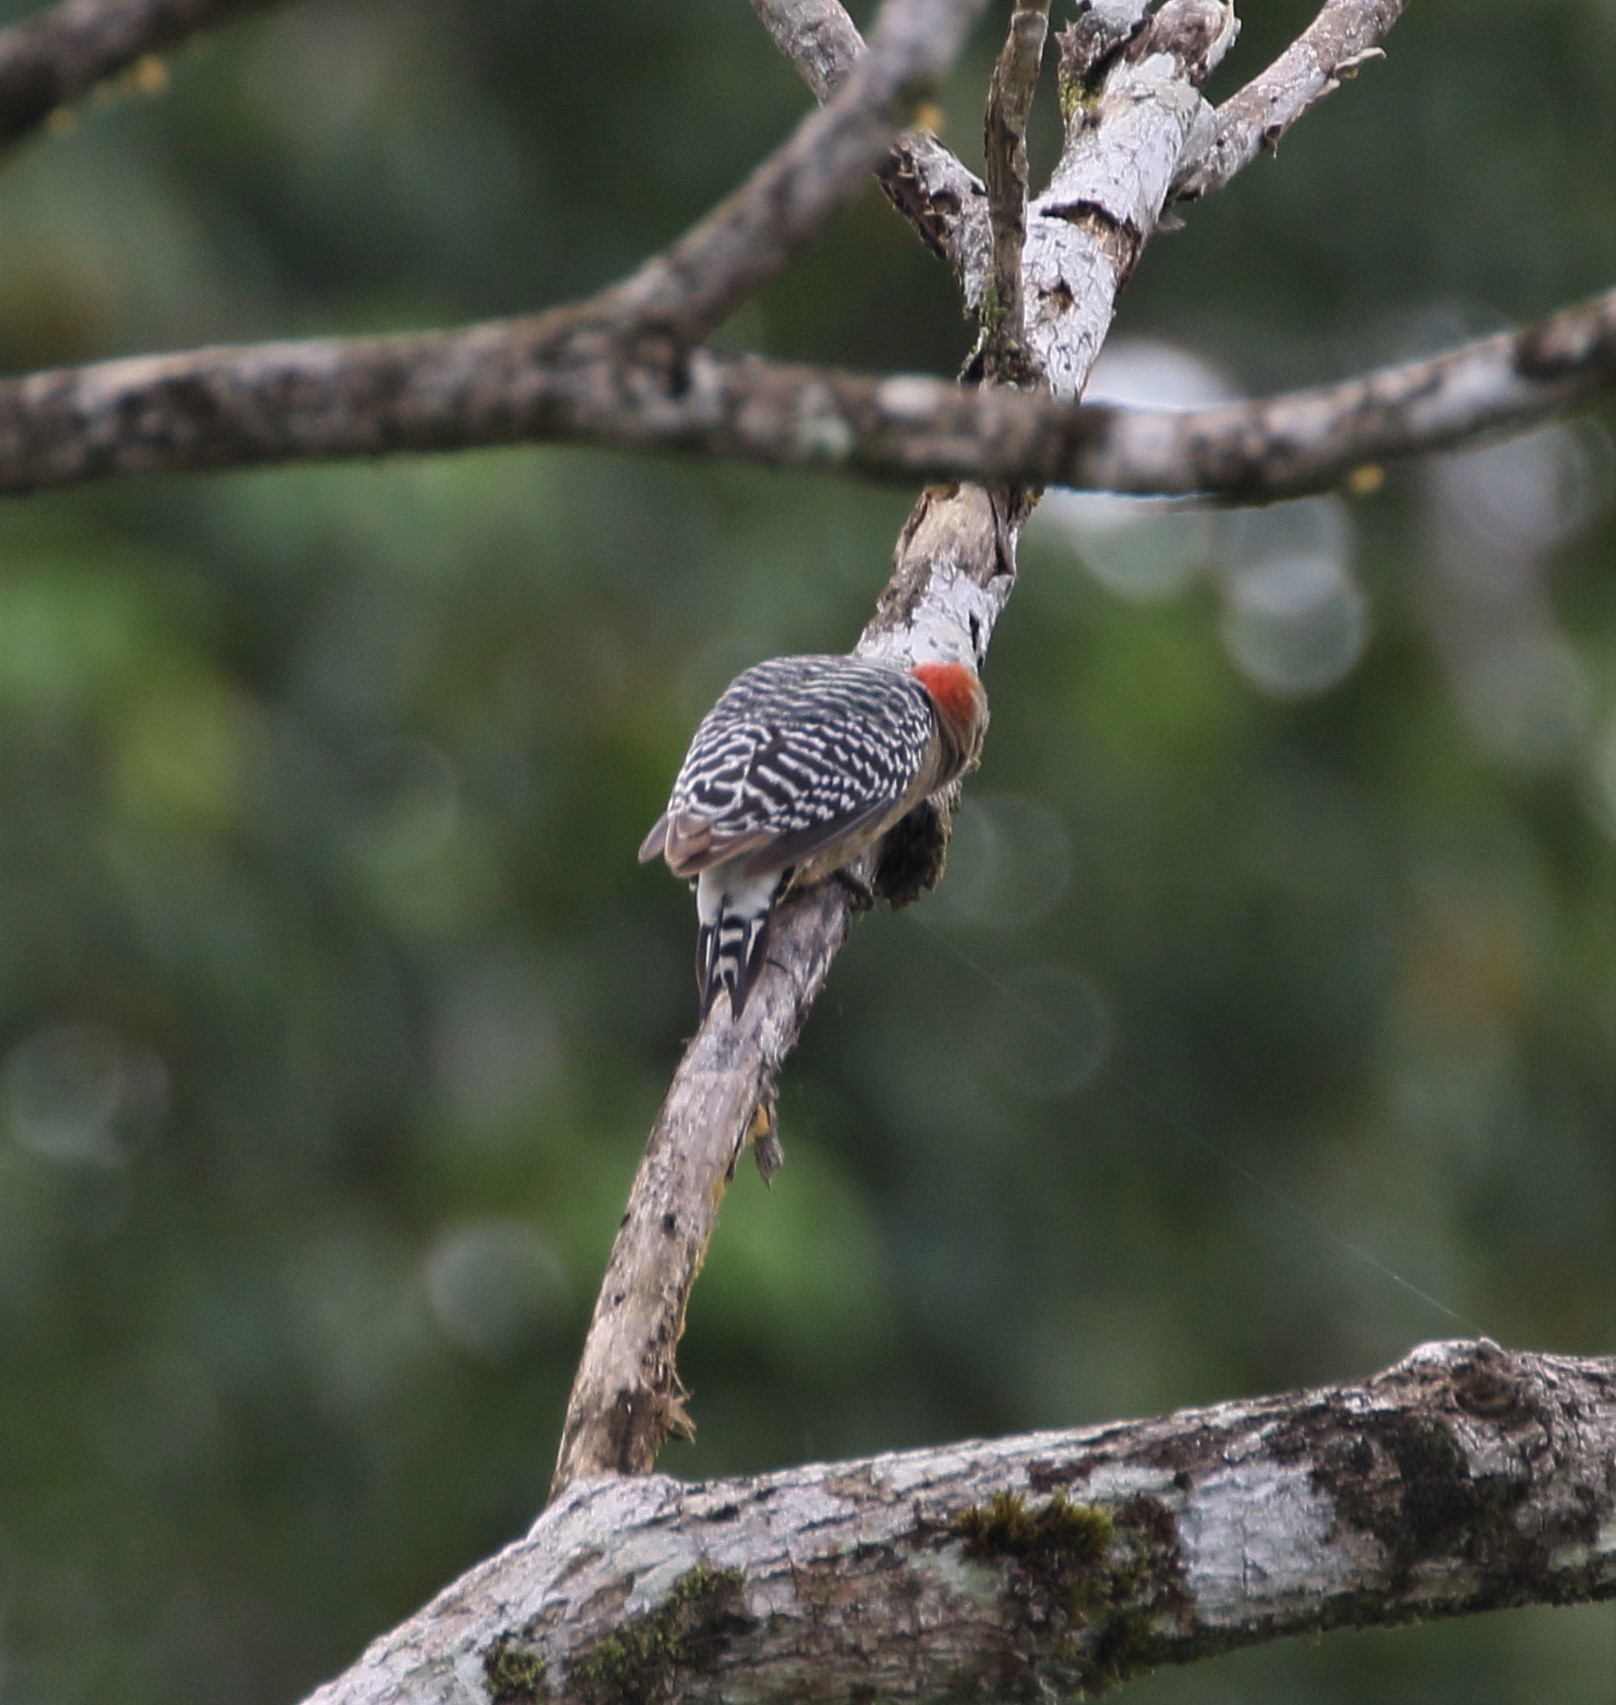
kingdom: Animalia
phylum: Chordata
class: Aves
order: Piciformes
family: Picidae
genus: Melanerpes
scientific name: Melanerpes rubricapillus
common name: Red-crowned woodpecker
